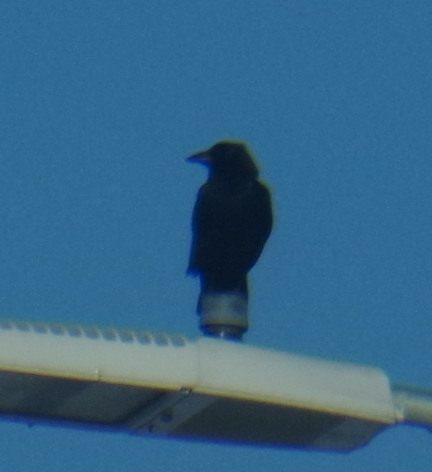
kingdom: Animalia
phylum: Chordata
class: Aves
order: Passeriformes
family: Corvidae
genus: Corvus
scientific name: Corvus brachyrhynchos
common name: American crow
